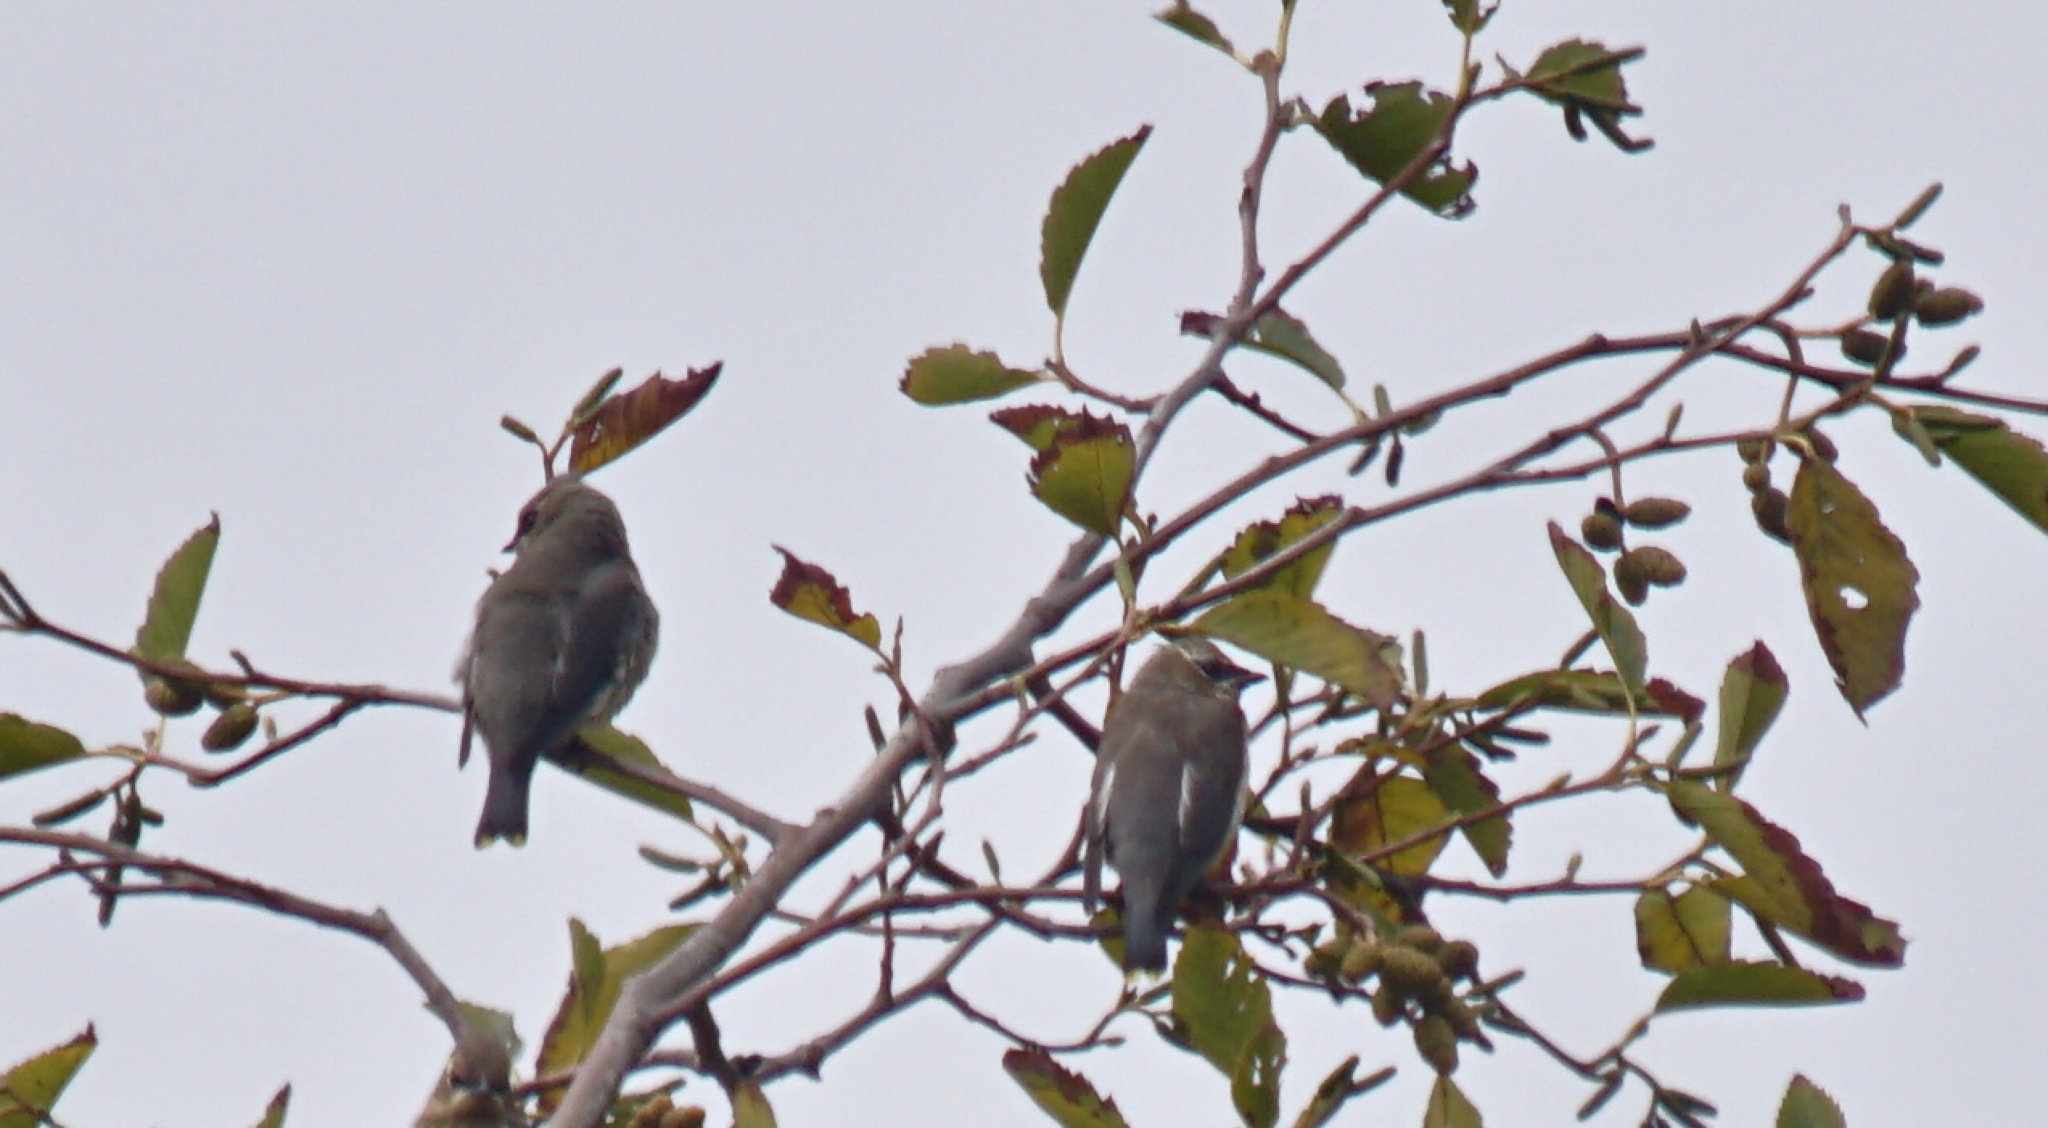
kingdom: Animalia
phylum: Chordata
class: Aves
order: Passeriformes
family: Bombycillidae
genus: Bombycilla
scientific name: Bombycilla cedrorum
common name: Cedar waxwing
